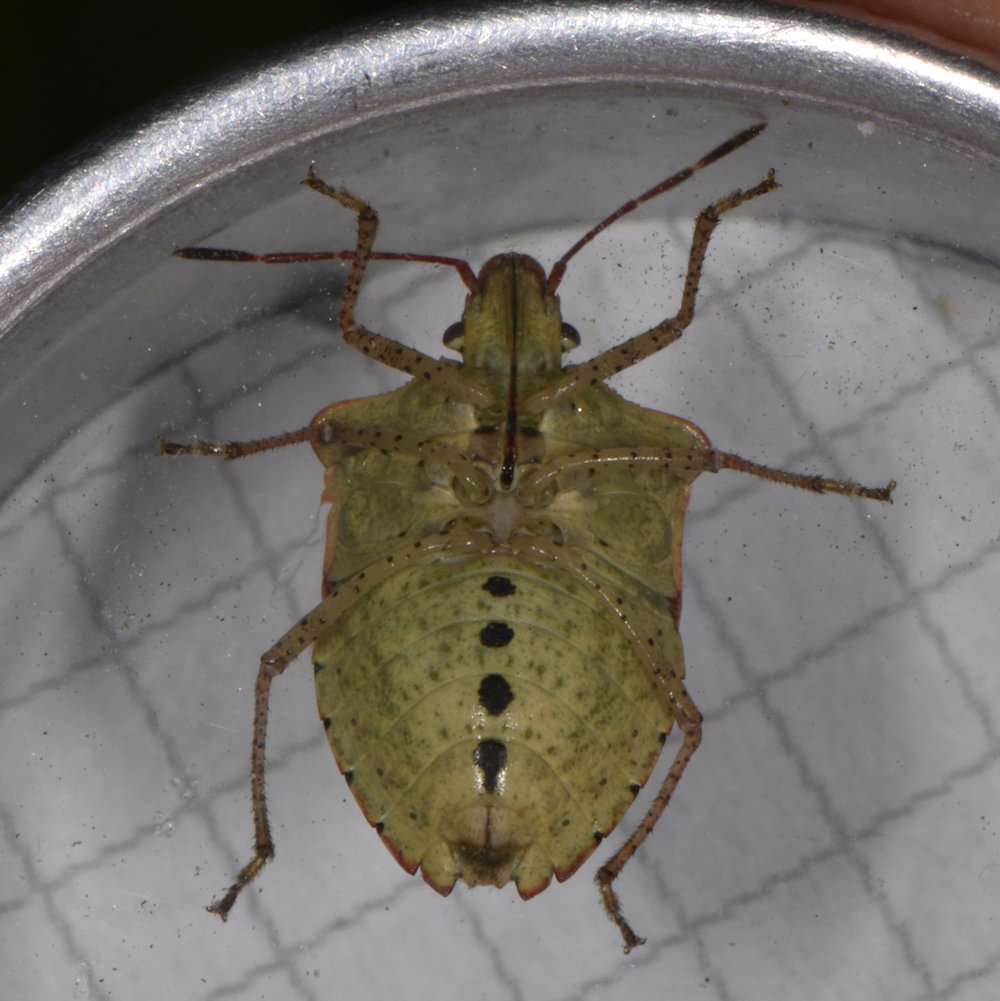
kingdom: Animalia
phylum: Arthropoda
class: Insecta
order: Hemiptera
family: Pentatomidae
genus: Euschistus
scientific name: Euschistus tristigmus
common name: Dusky stink bug
